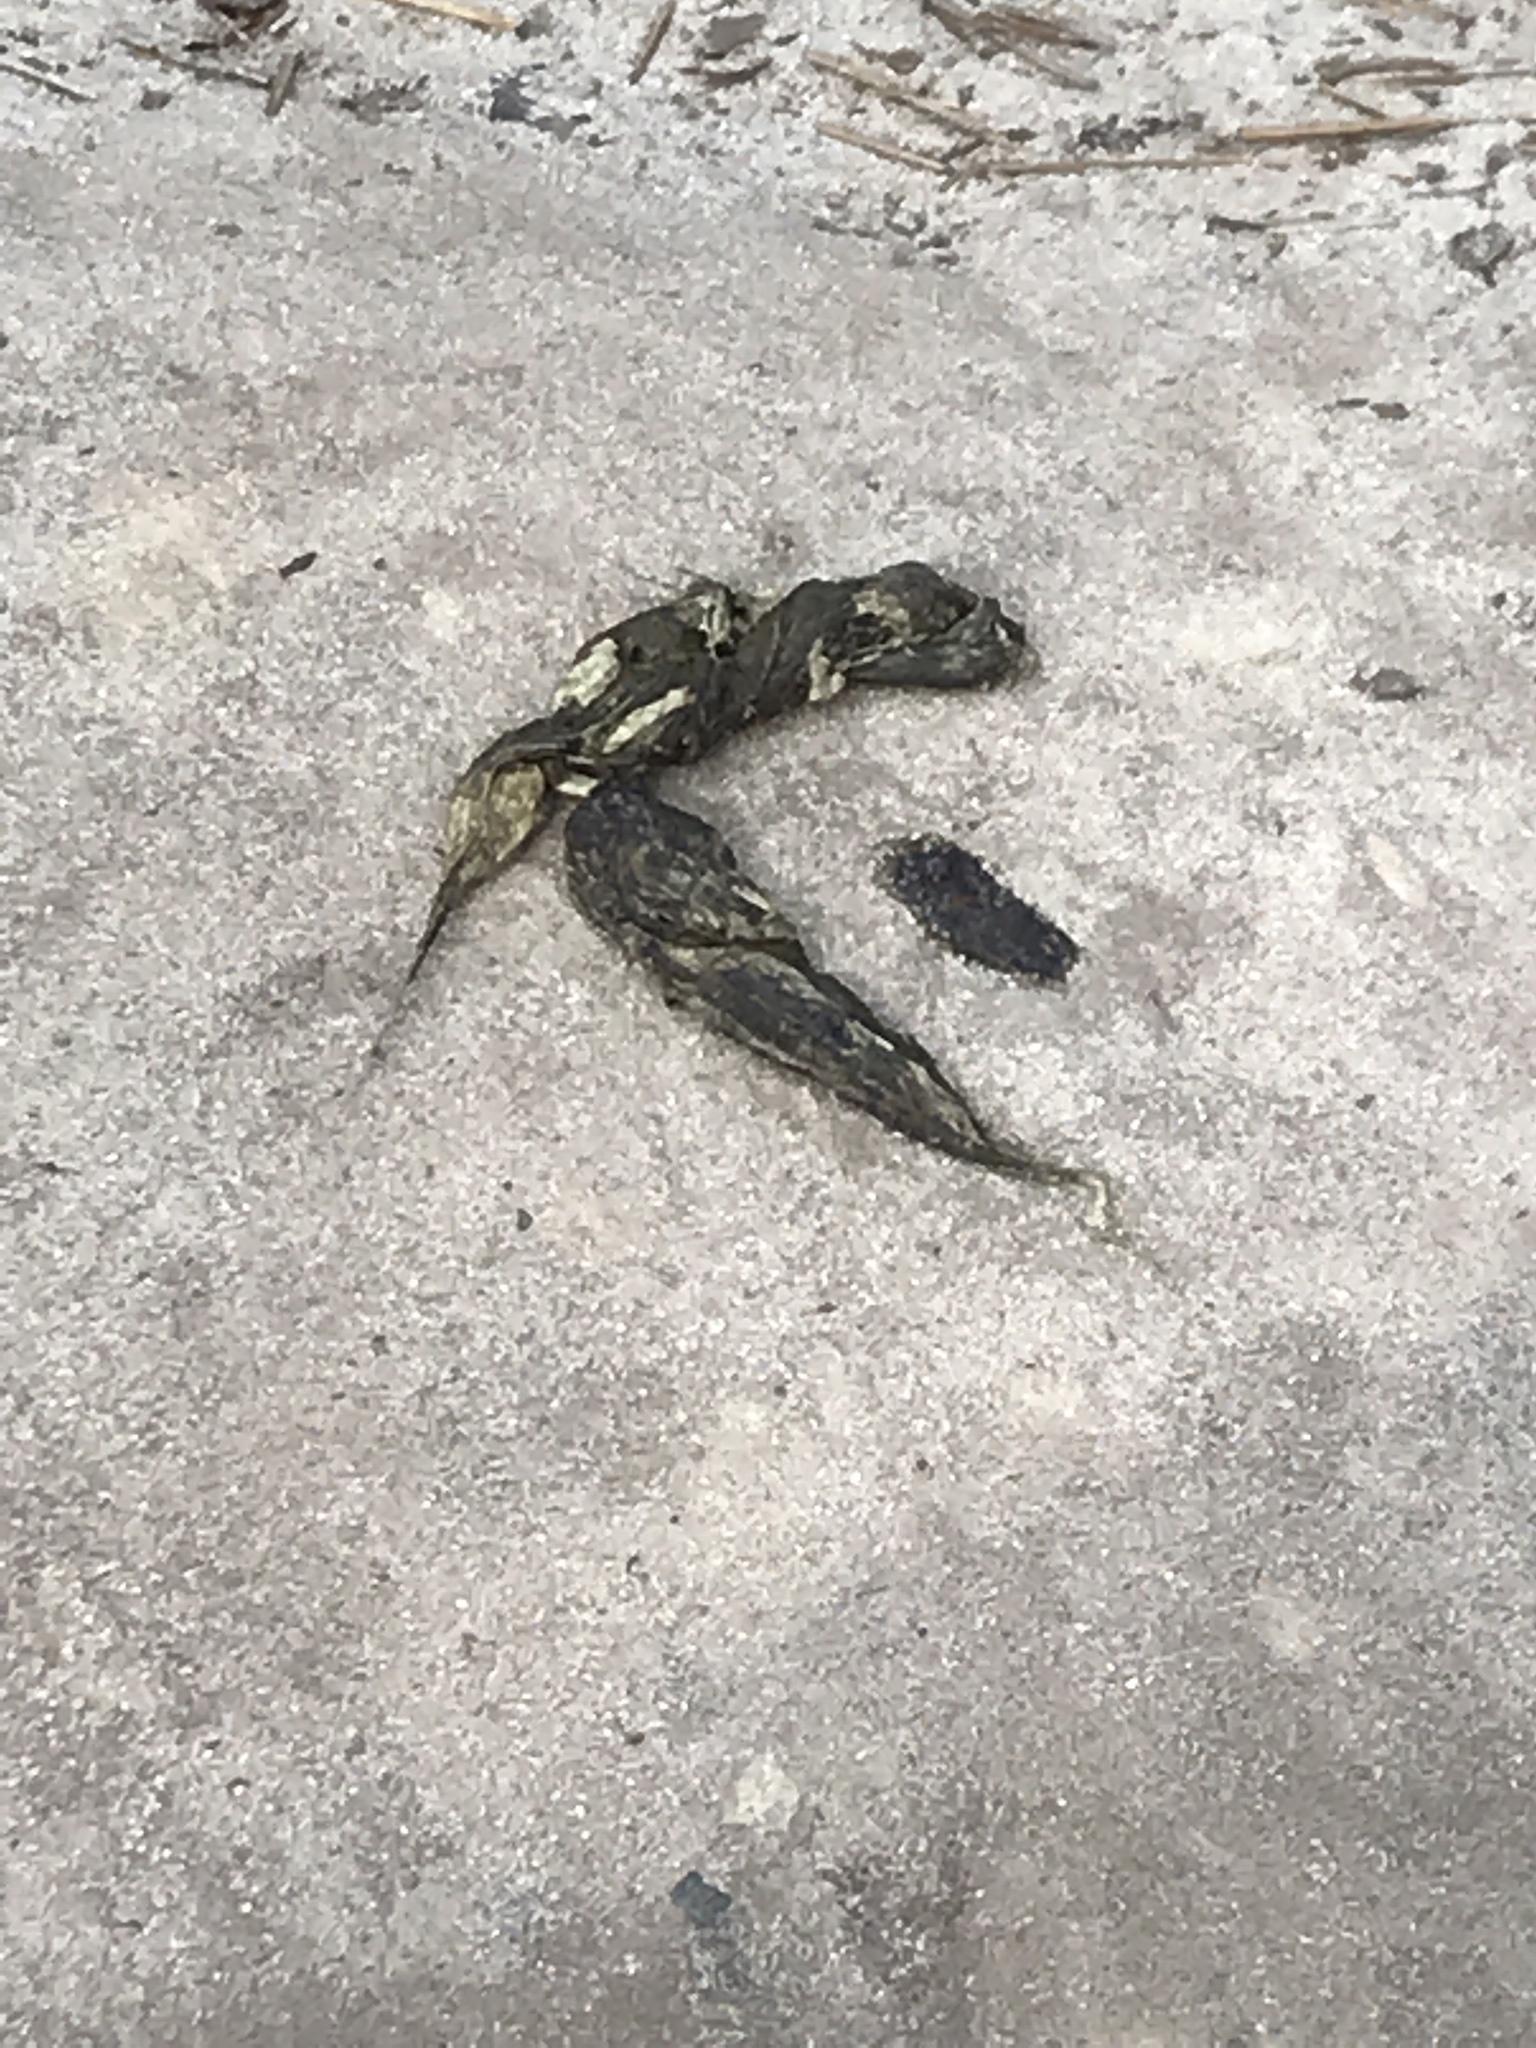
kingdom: Animalia
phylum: Chordata
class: Mammalia
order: Carnivora
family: Canidae
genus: Vulpes
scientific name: Vulpes vulpes
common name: Red fox
